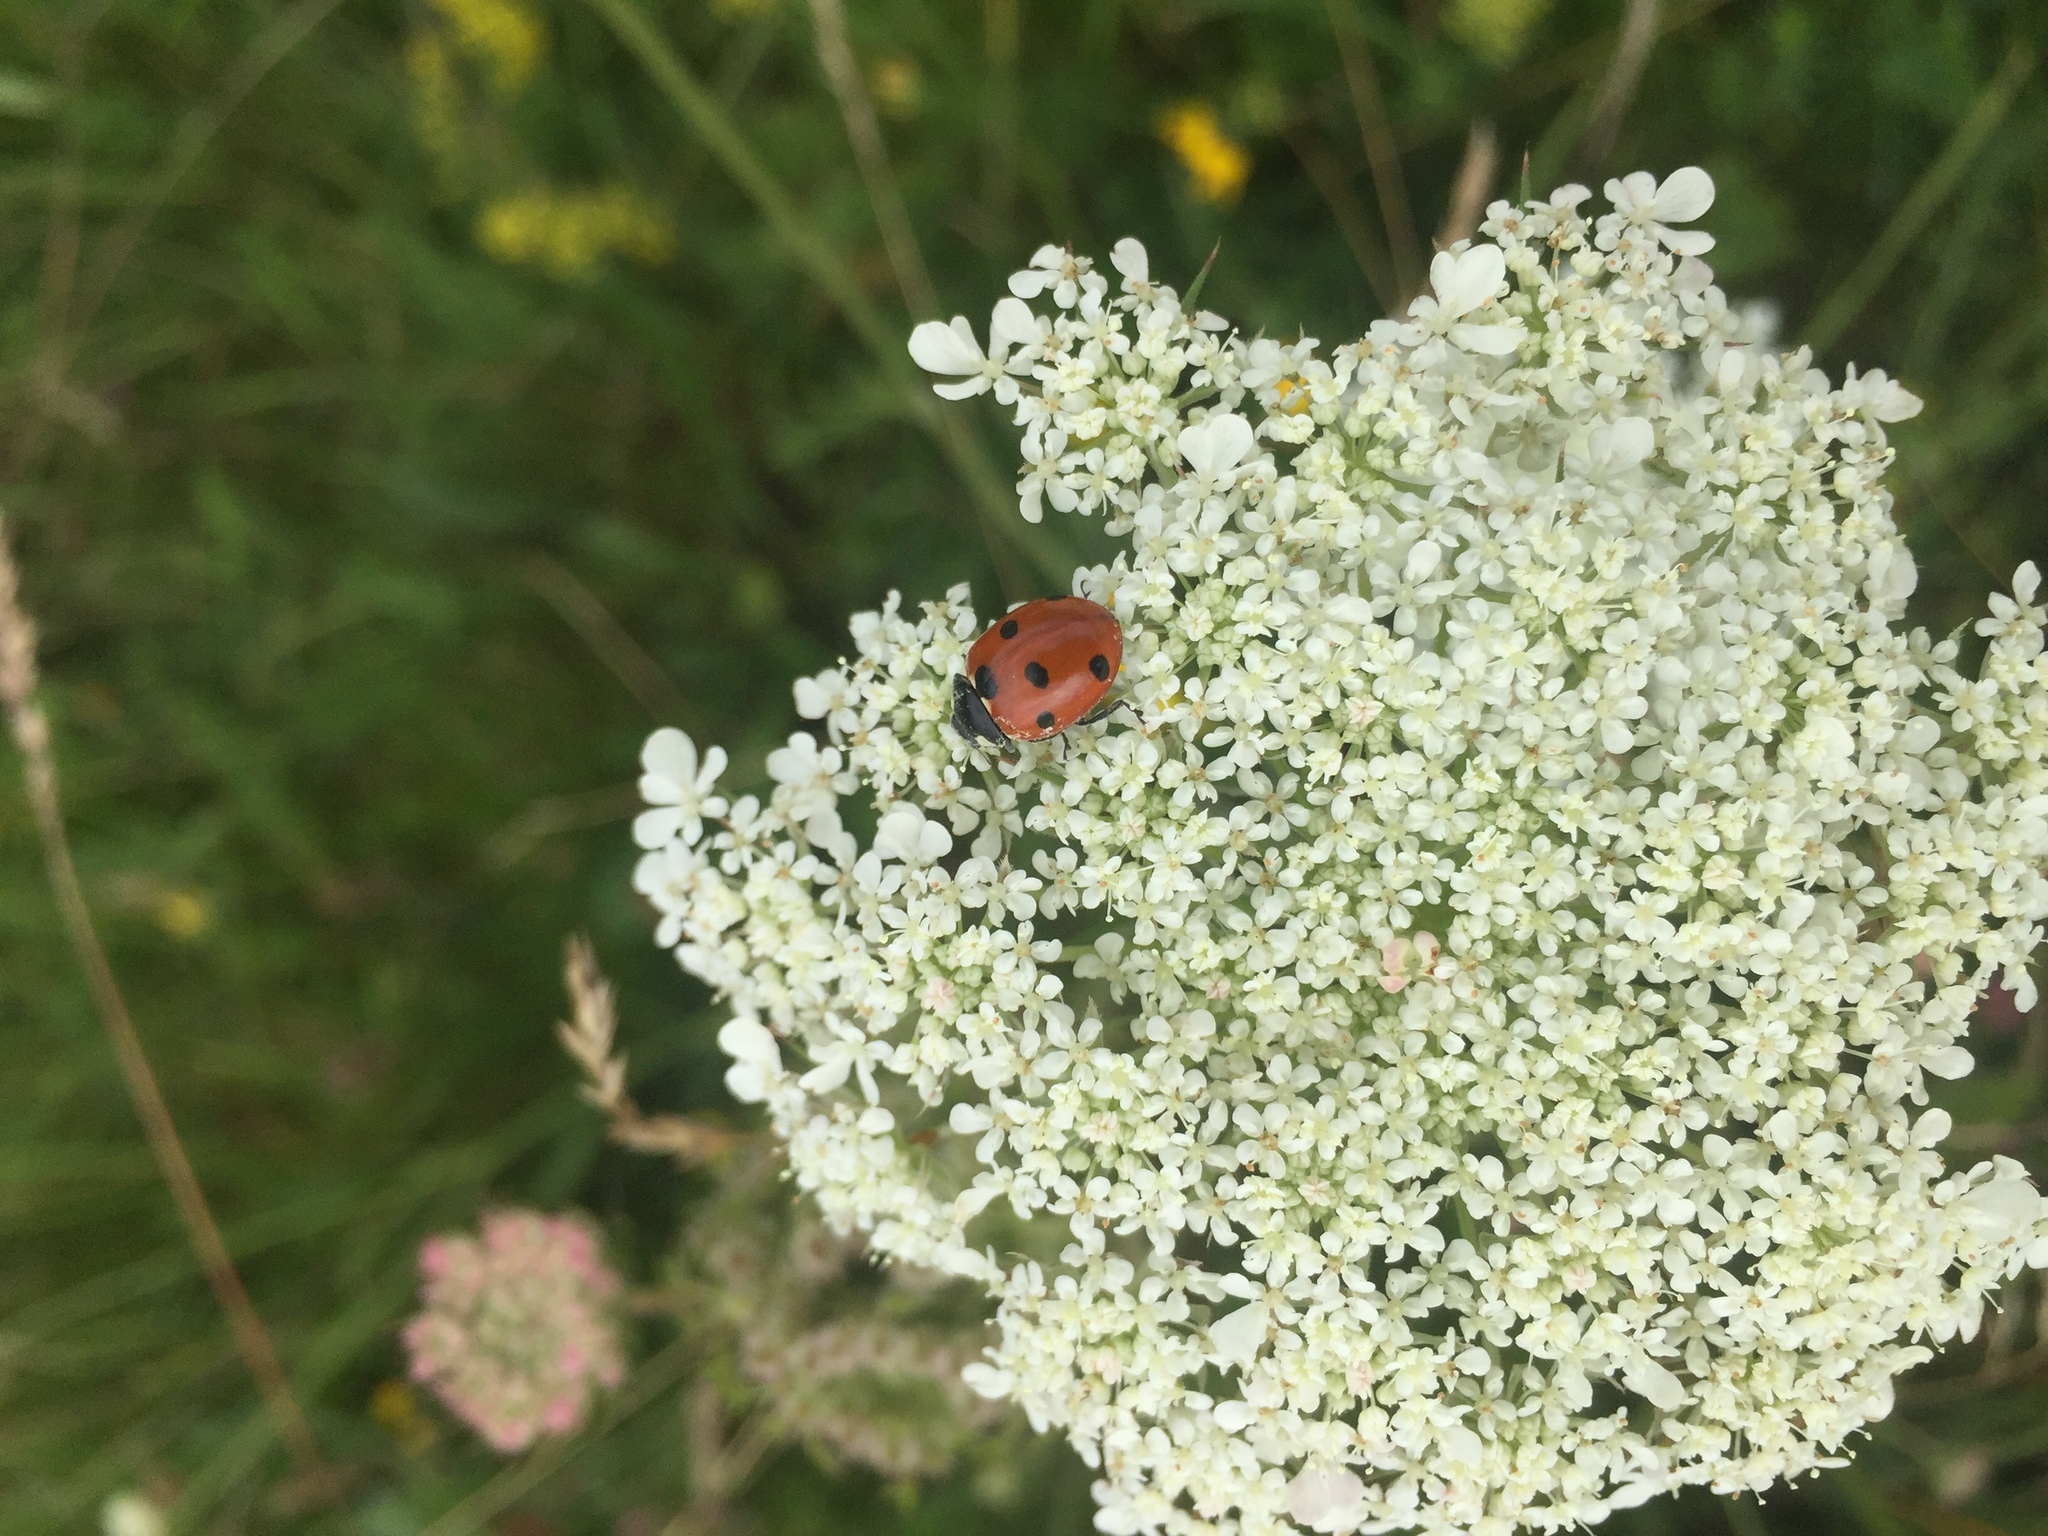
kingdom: Animalia
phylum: Arthropoda
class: Insecta
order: Coleoptera
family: Coccinellidae
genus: Coccinella
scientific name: Coccinella septempunctata
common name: Sevenspotted lady beetle
